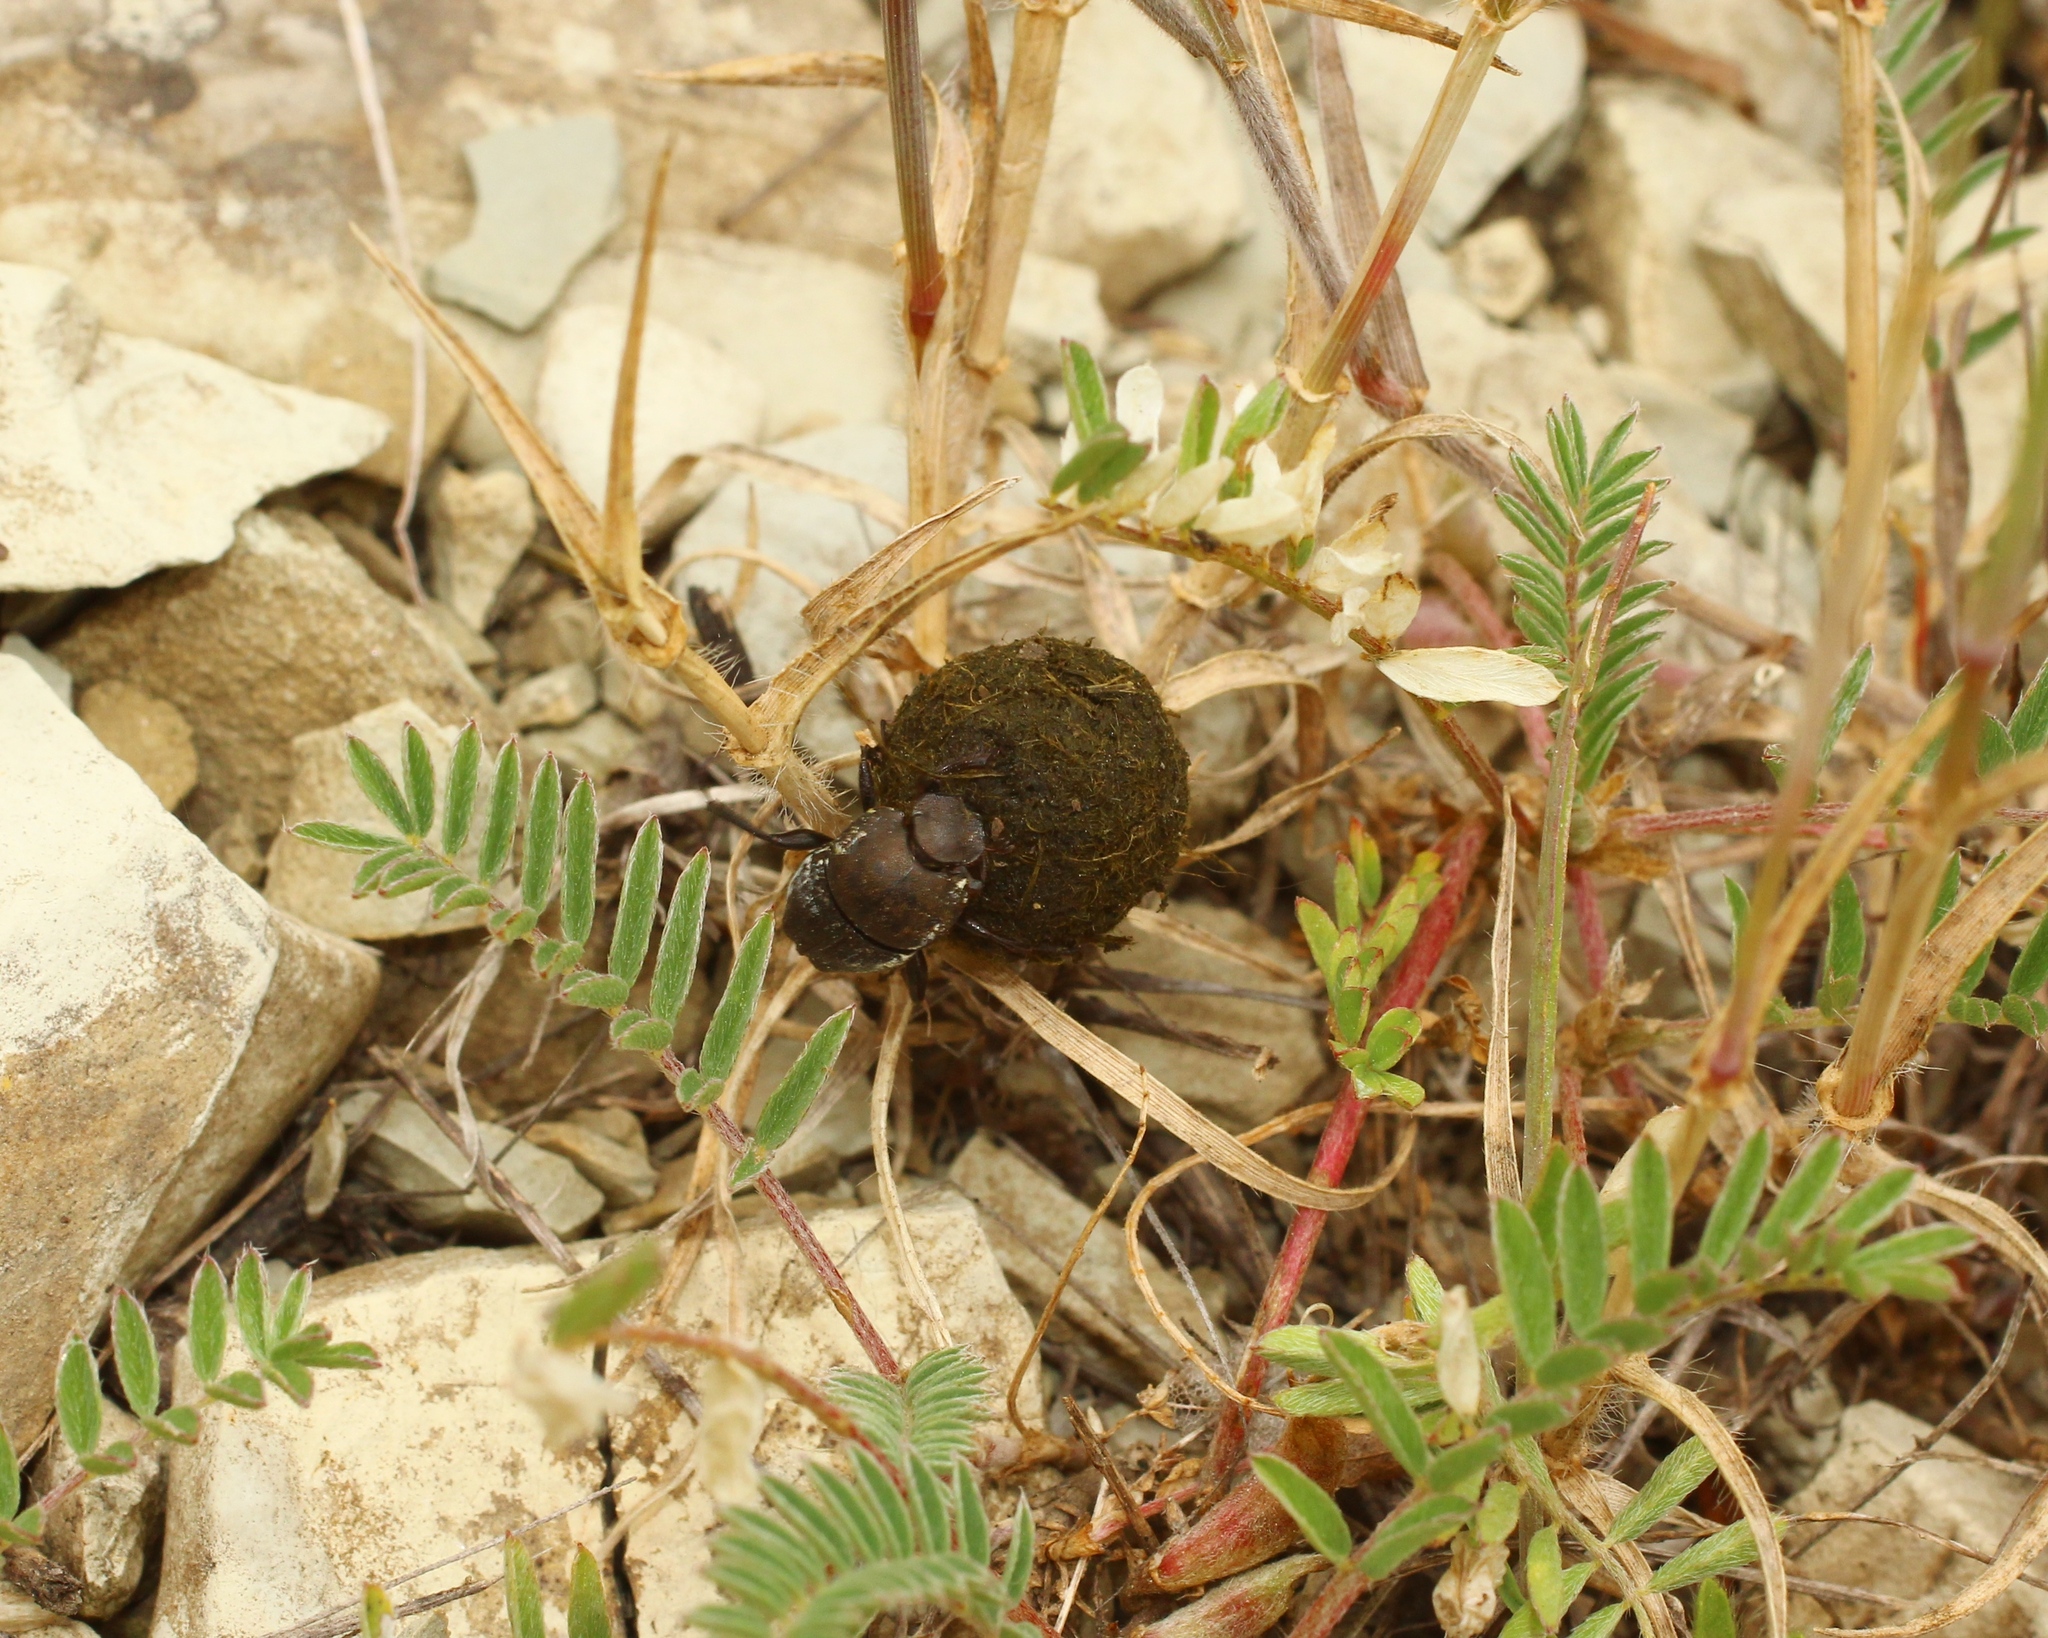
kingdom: Animalia
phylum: Arthropoda
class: Insecta
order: Coleoptera
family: Scarabaeidae
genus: Sisyphus
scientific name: Sisyphus schaefferi
